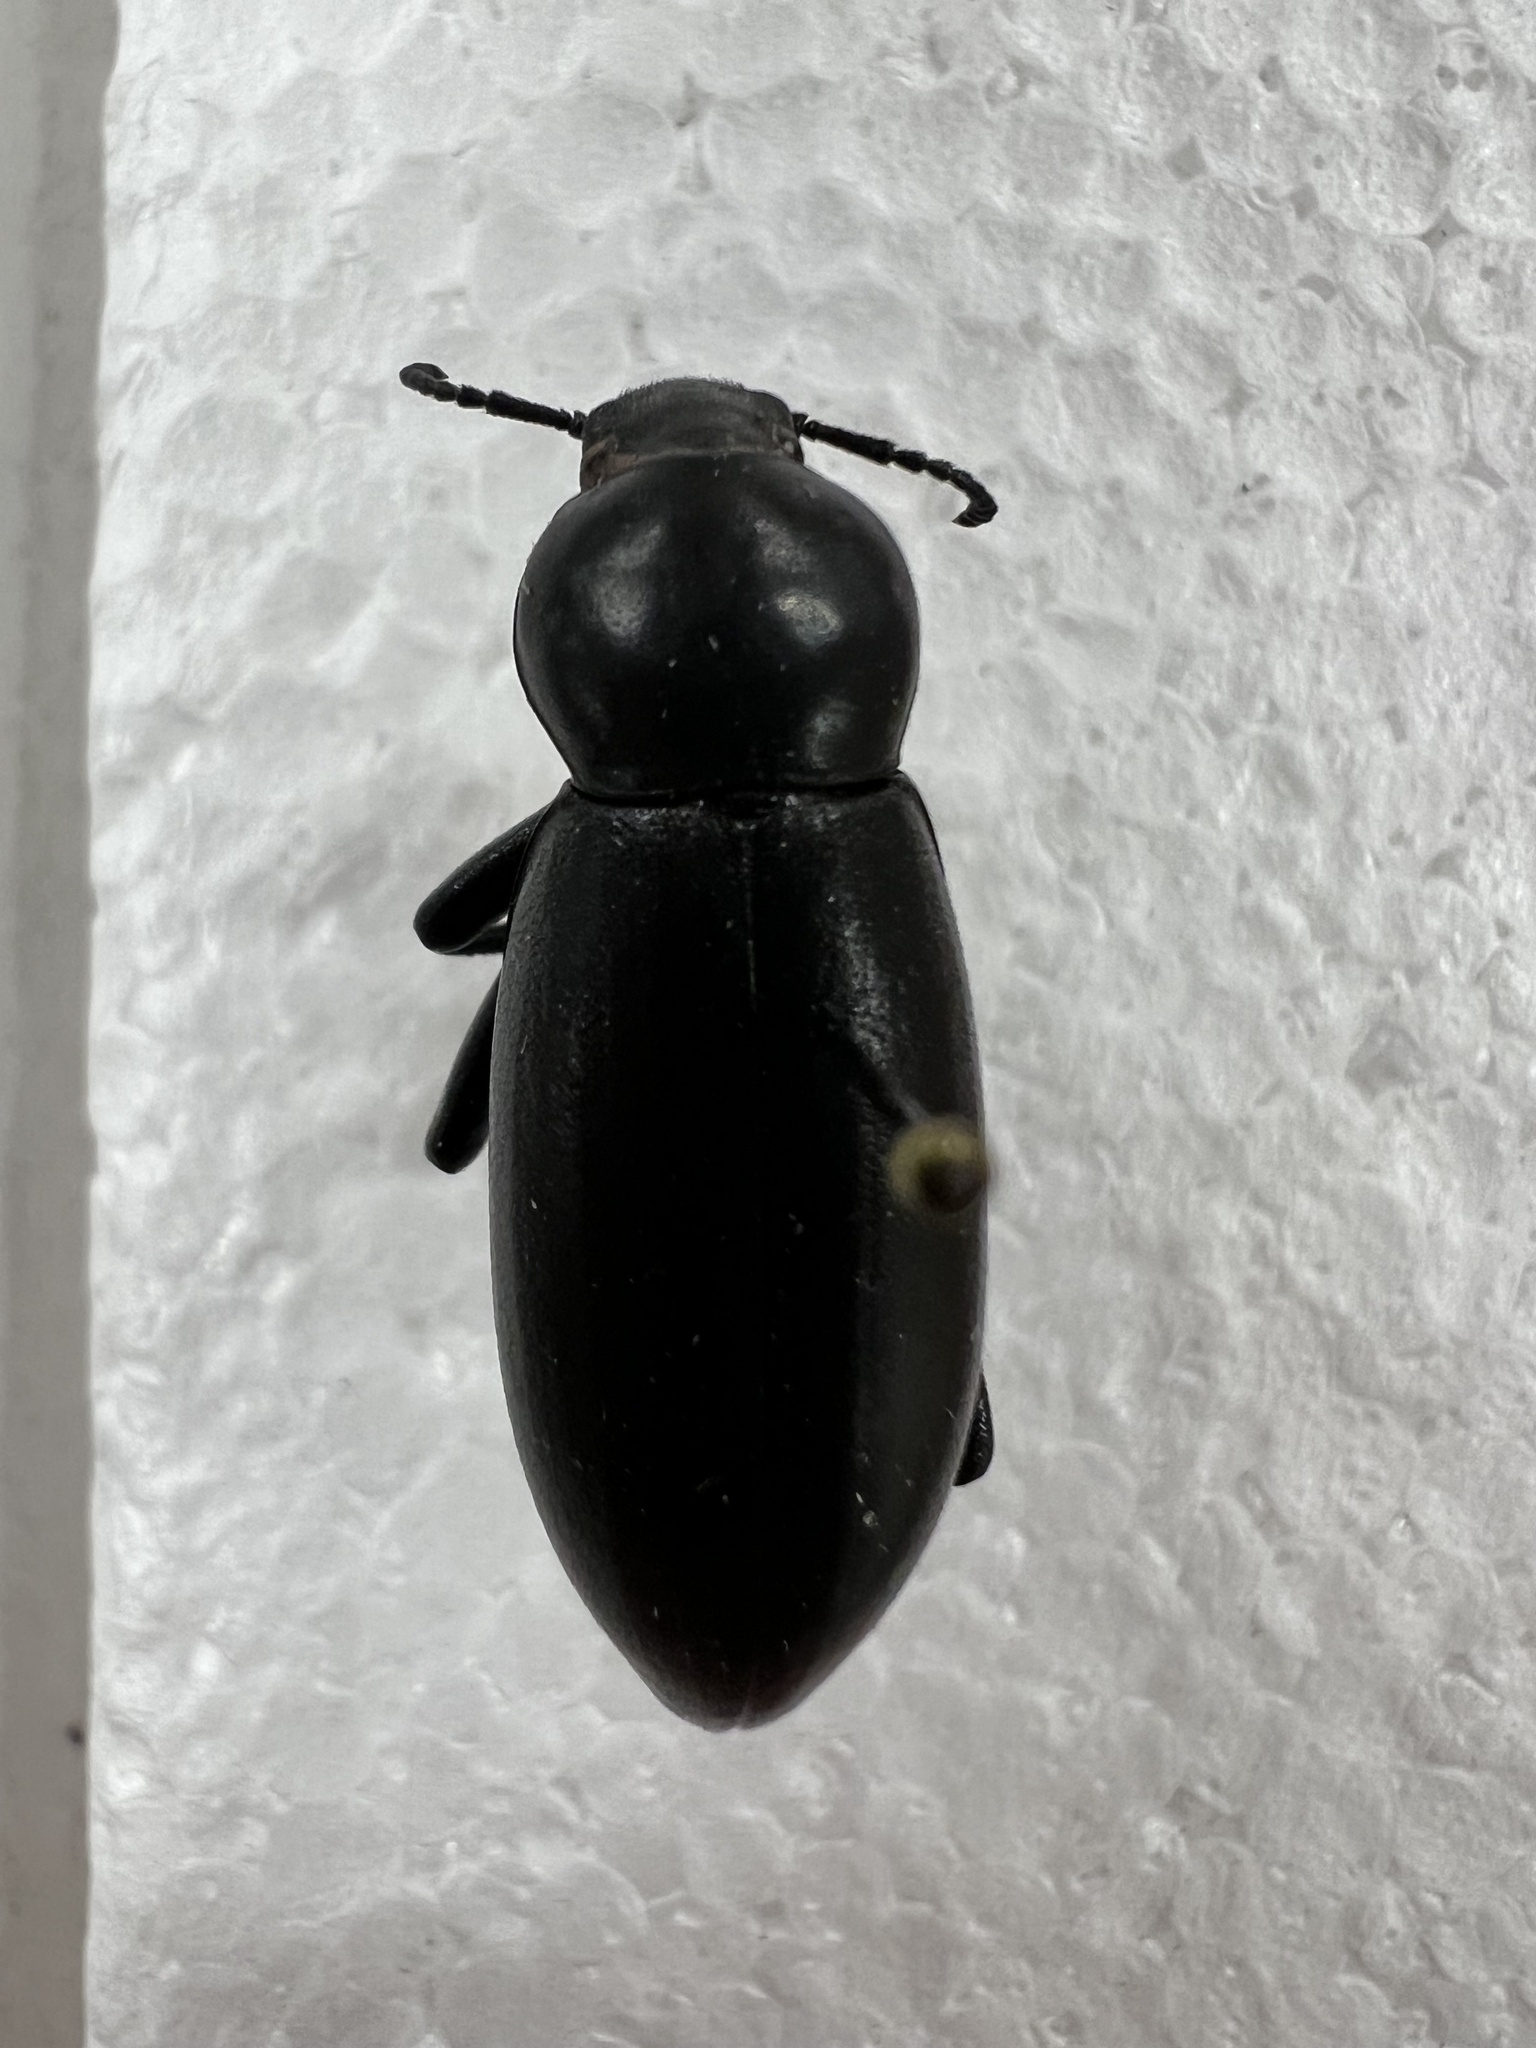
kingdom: Animalia
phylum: Arthropoda
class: Insecta
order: Coleoptera
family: Tenebrionidae
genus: Eleodes
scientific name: Eleodes gigantea
